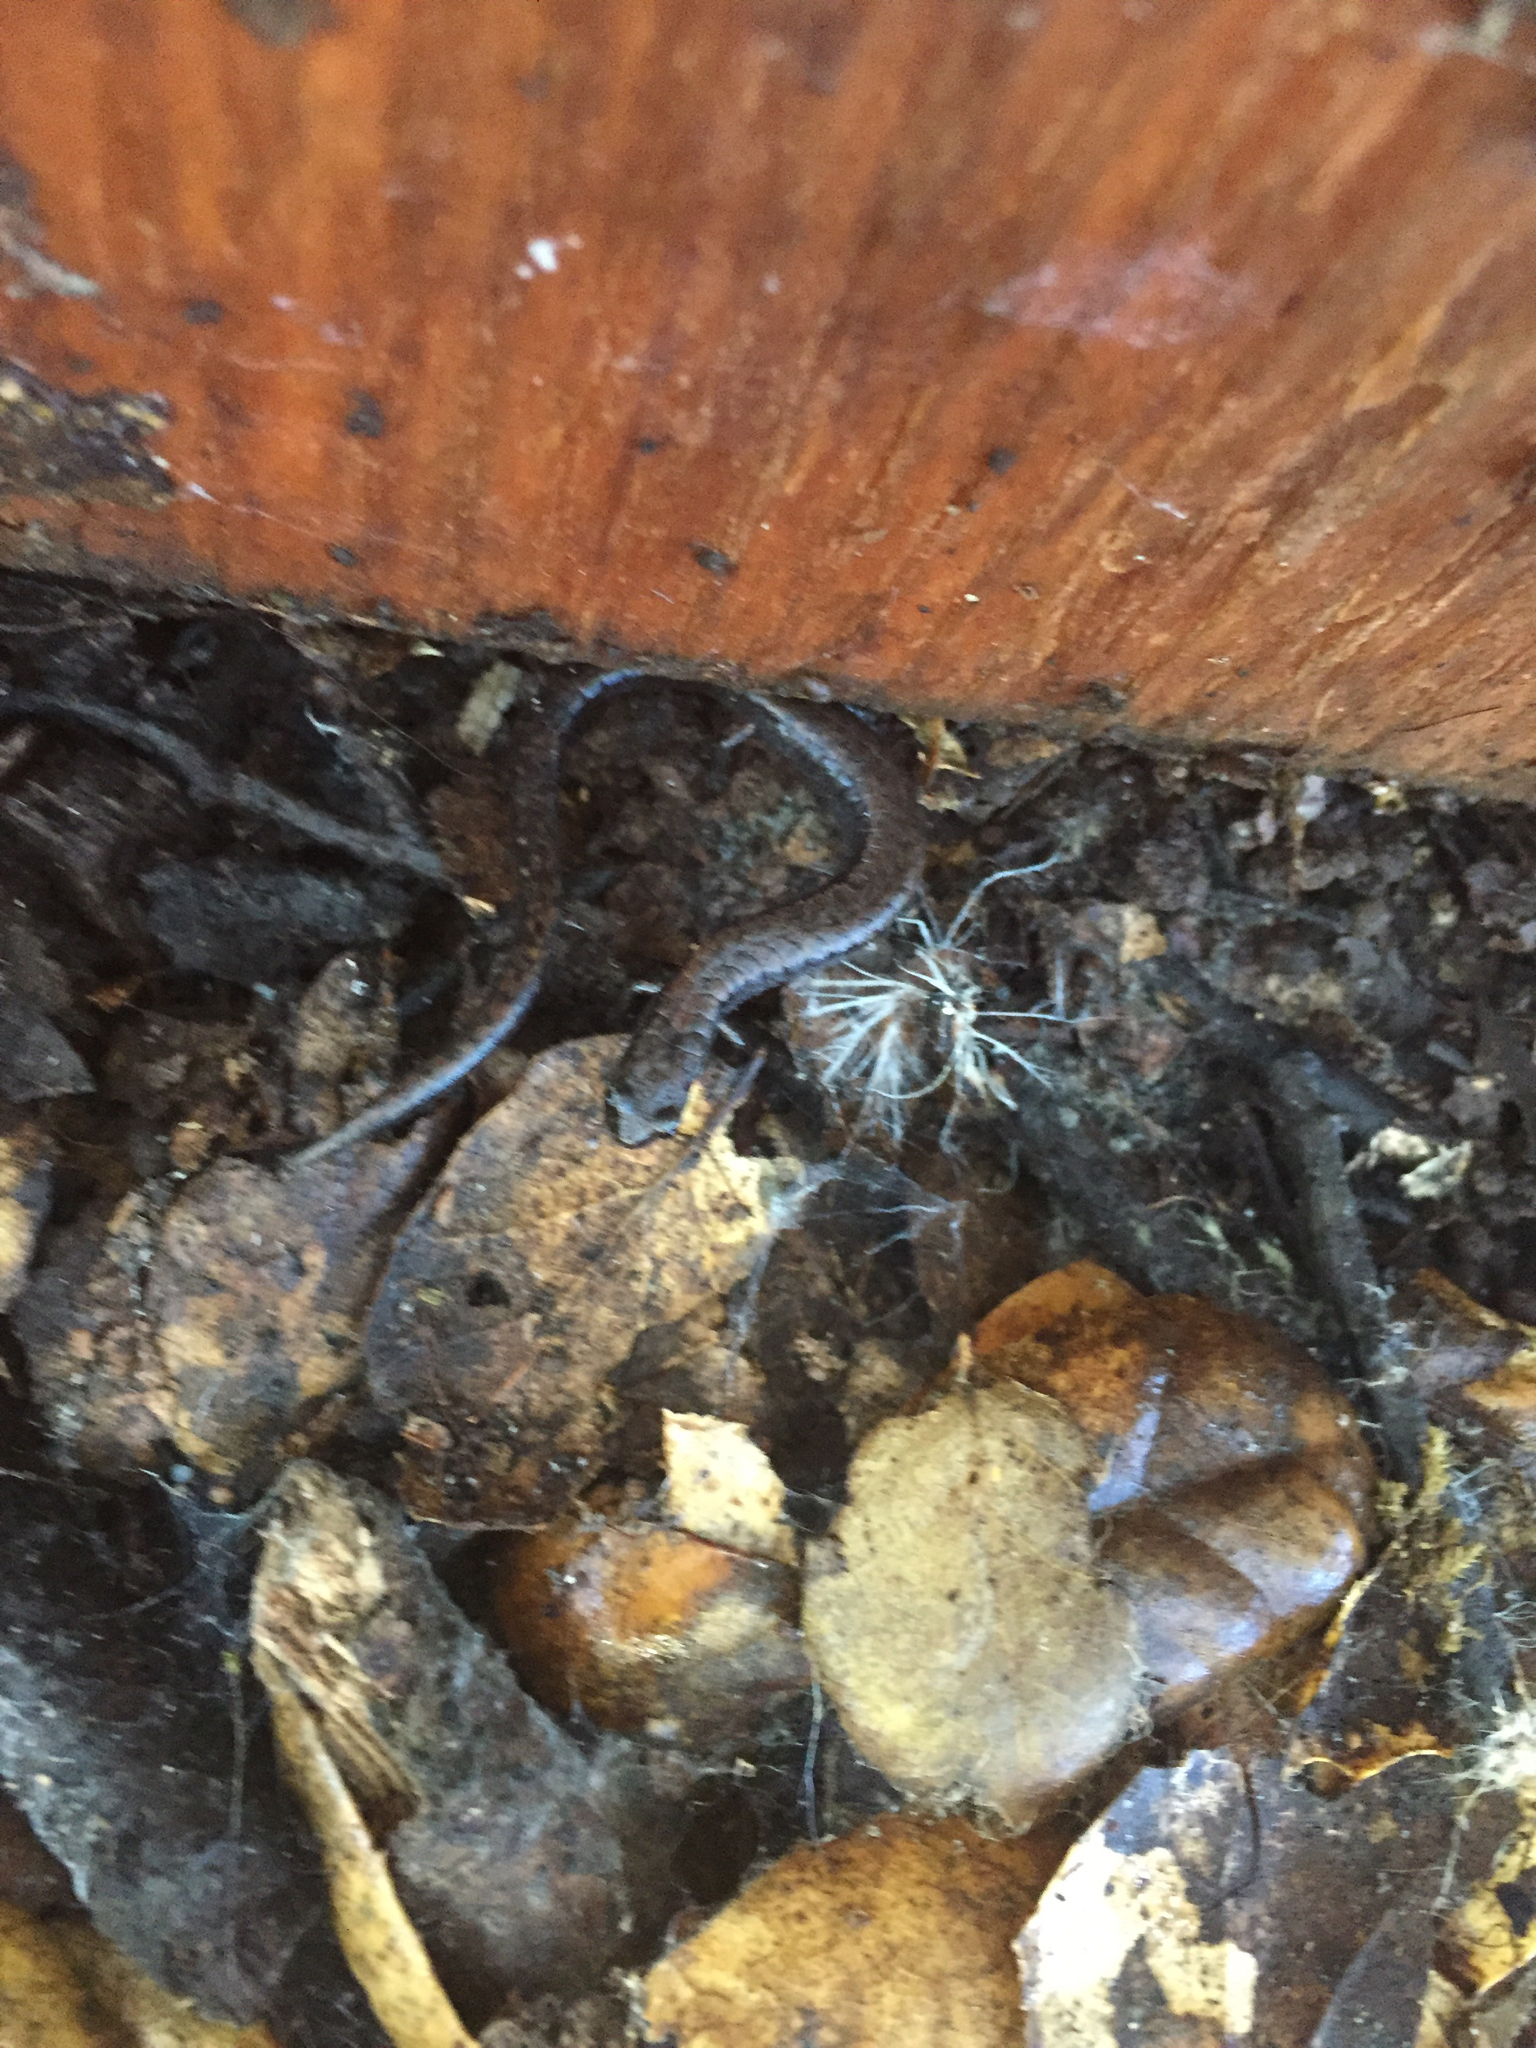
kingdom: Animalia
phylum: Chordata
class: Amphibia
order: Caudata
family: Plethodontidae
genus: Batrachoseps
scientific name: Batrachoseps attenuatus
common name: California slender salamander
